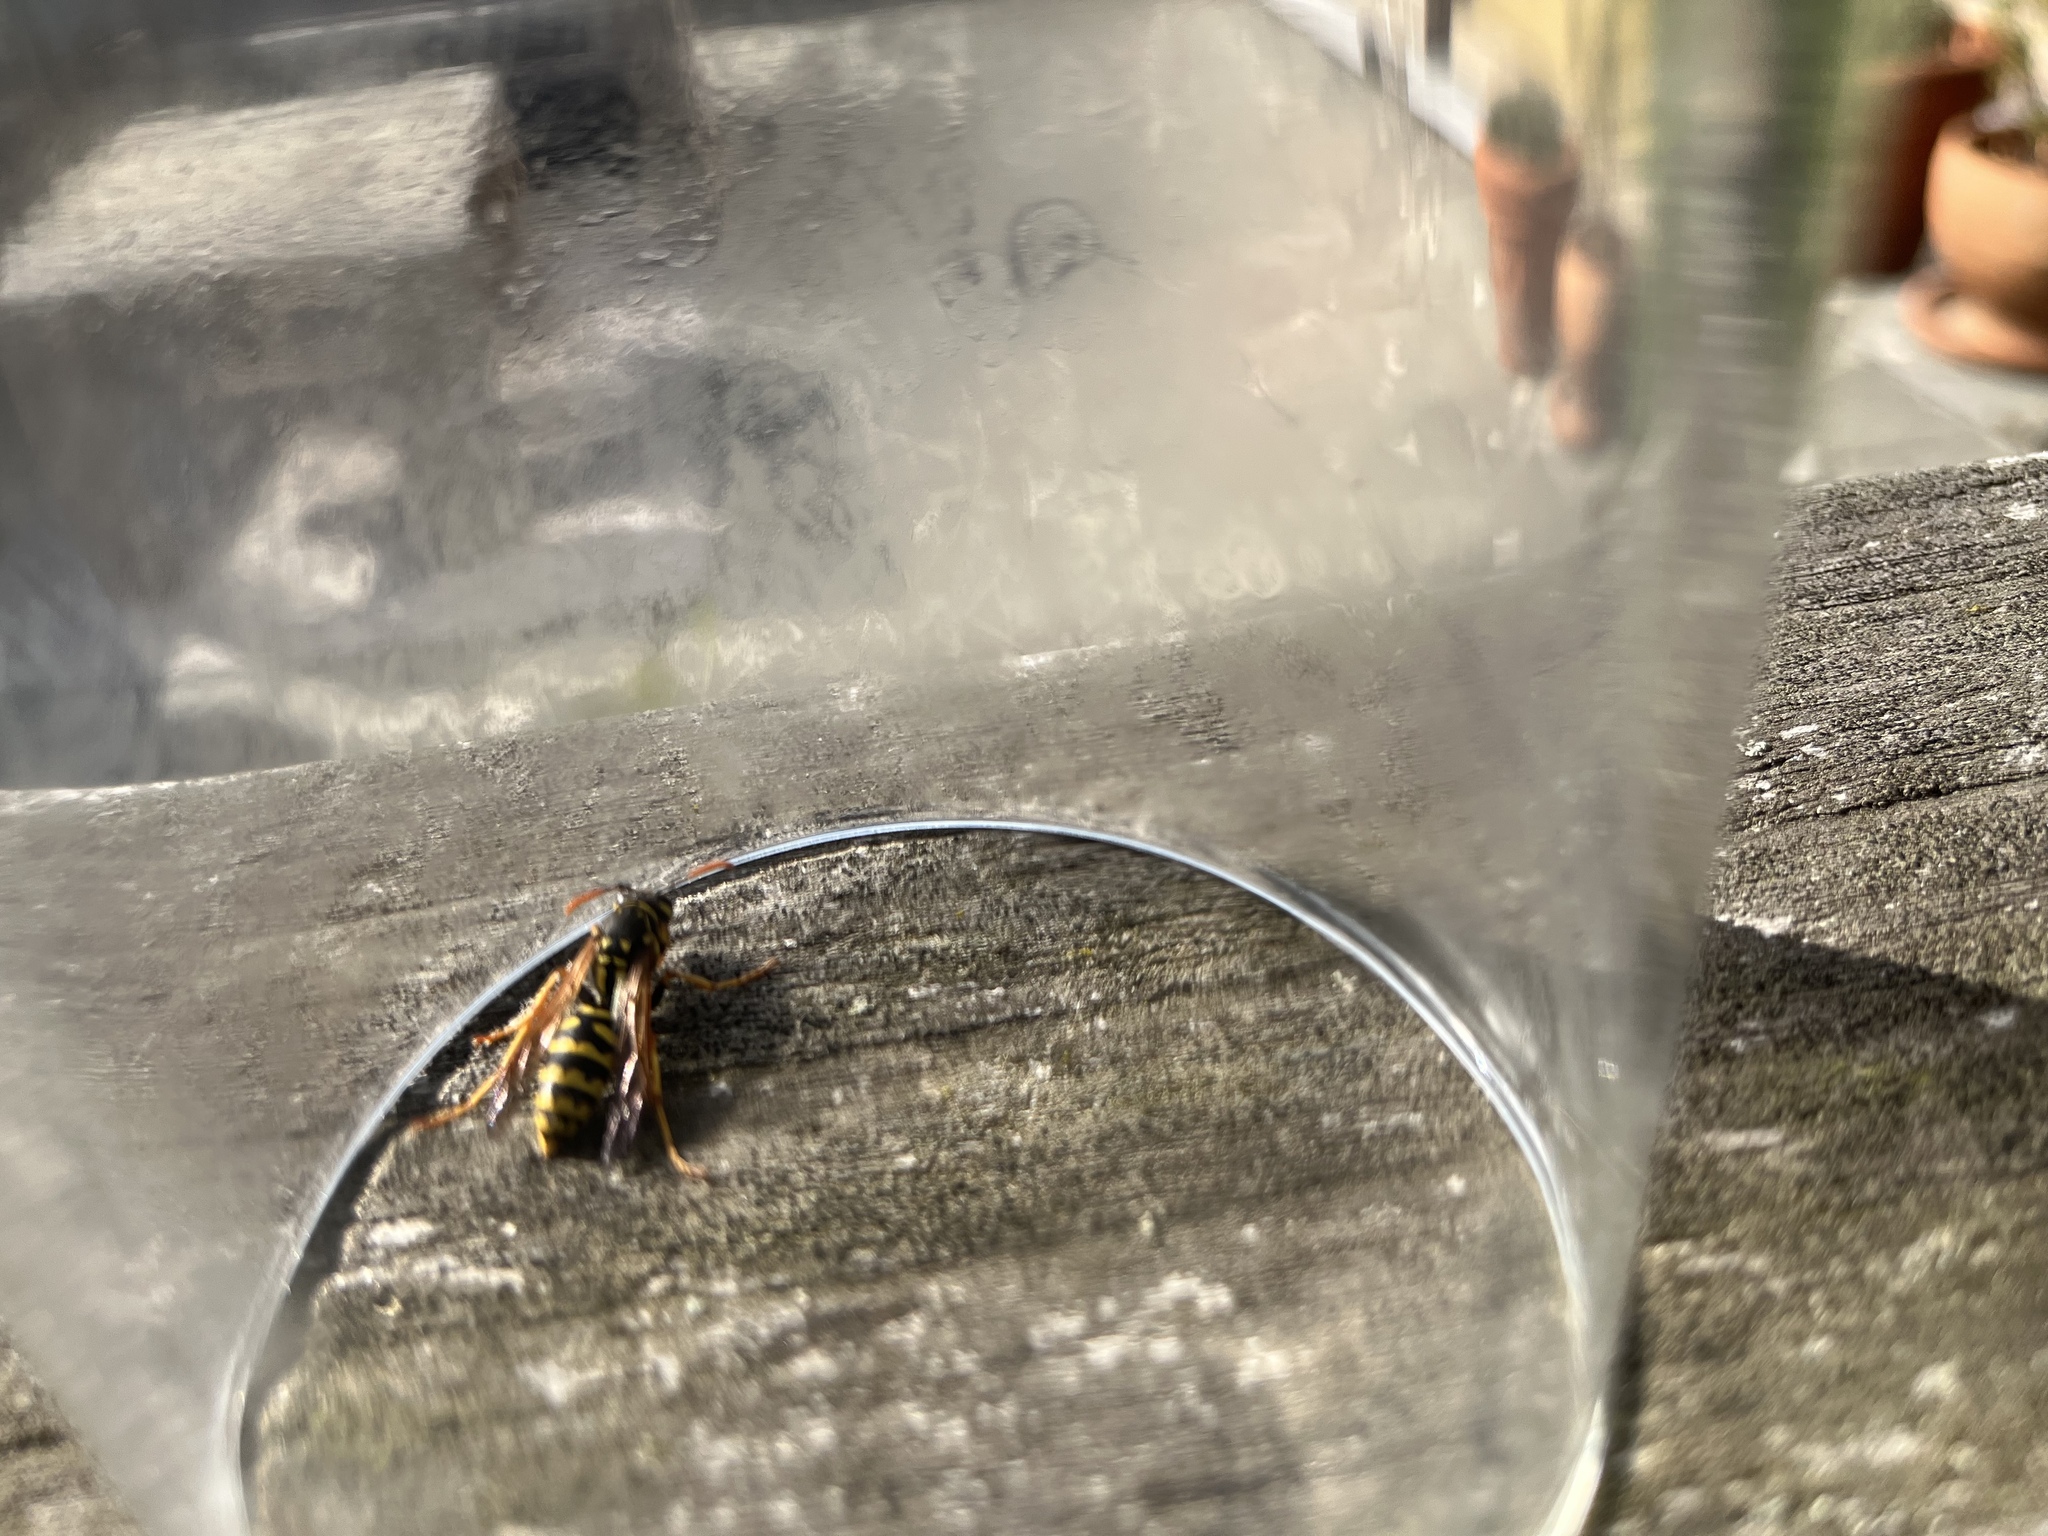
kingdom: Animalia
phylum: Arthropoda
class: Insecta
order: Hymenoptera
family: Eumenidae
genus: Polistes
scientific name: Polistes dominula
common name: Paper wasp
